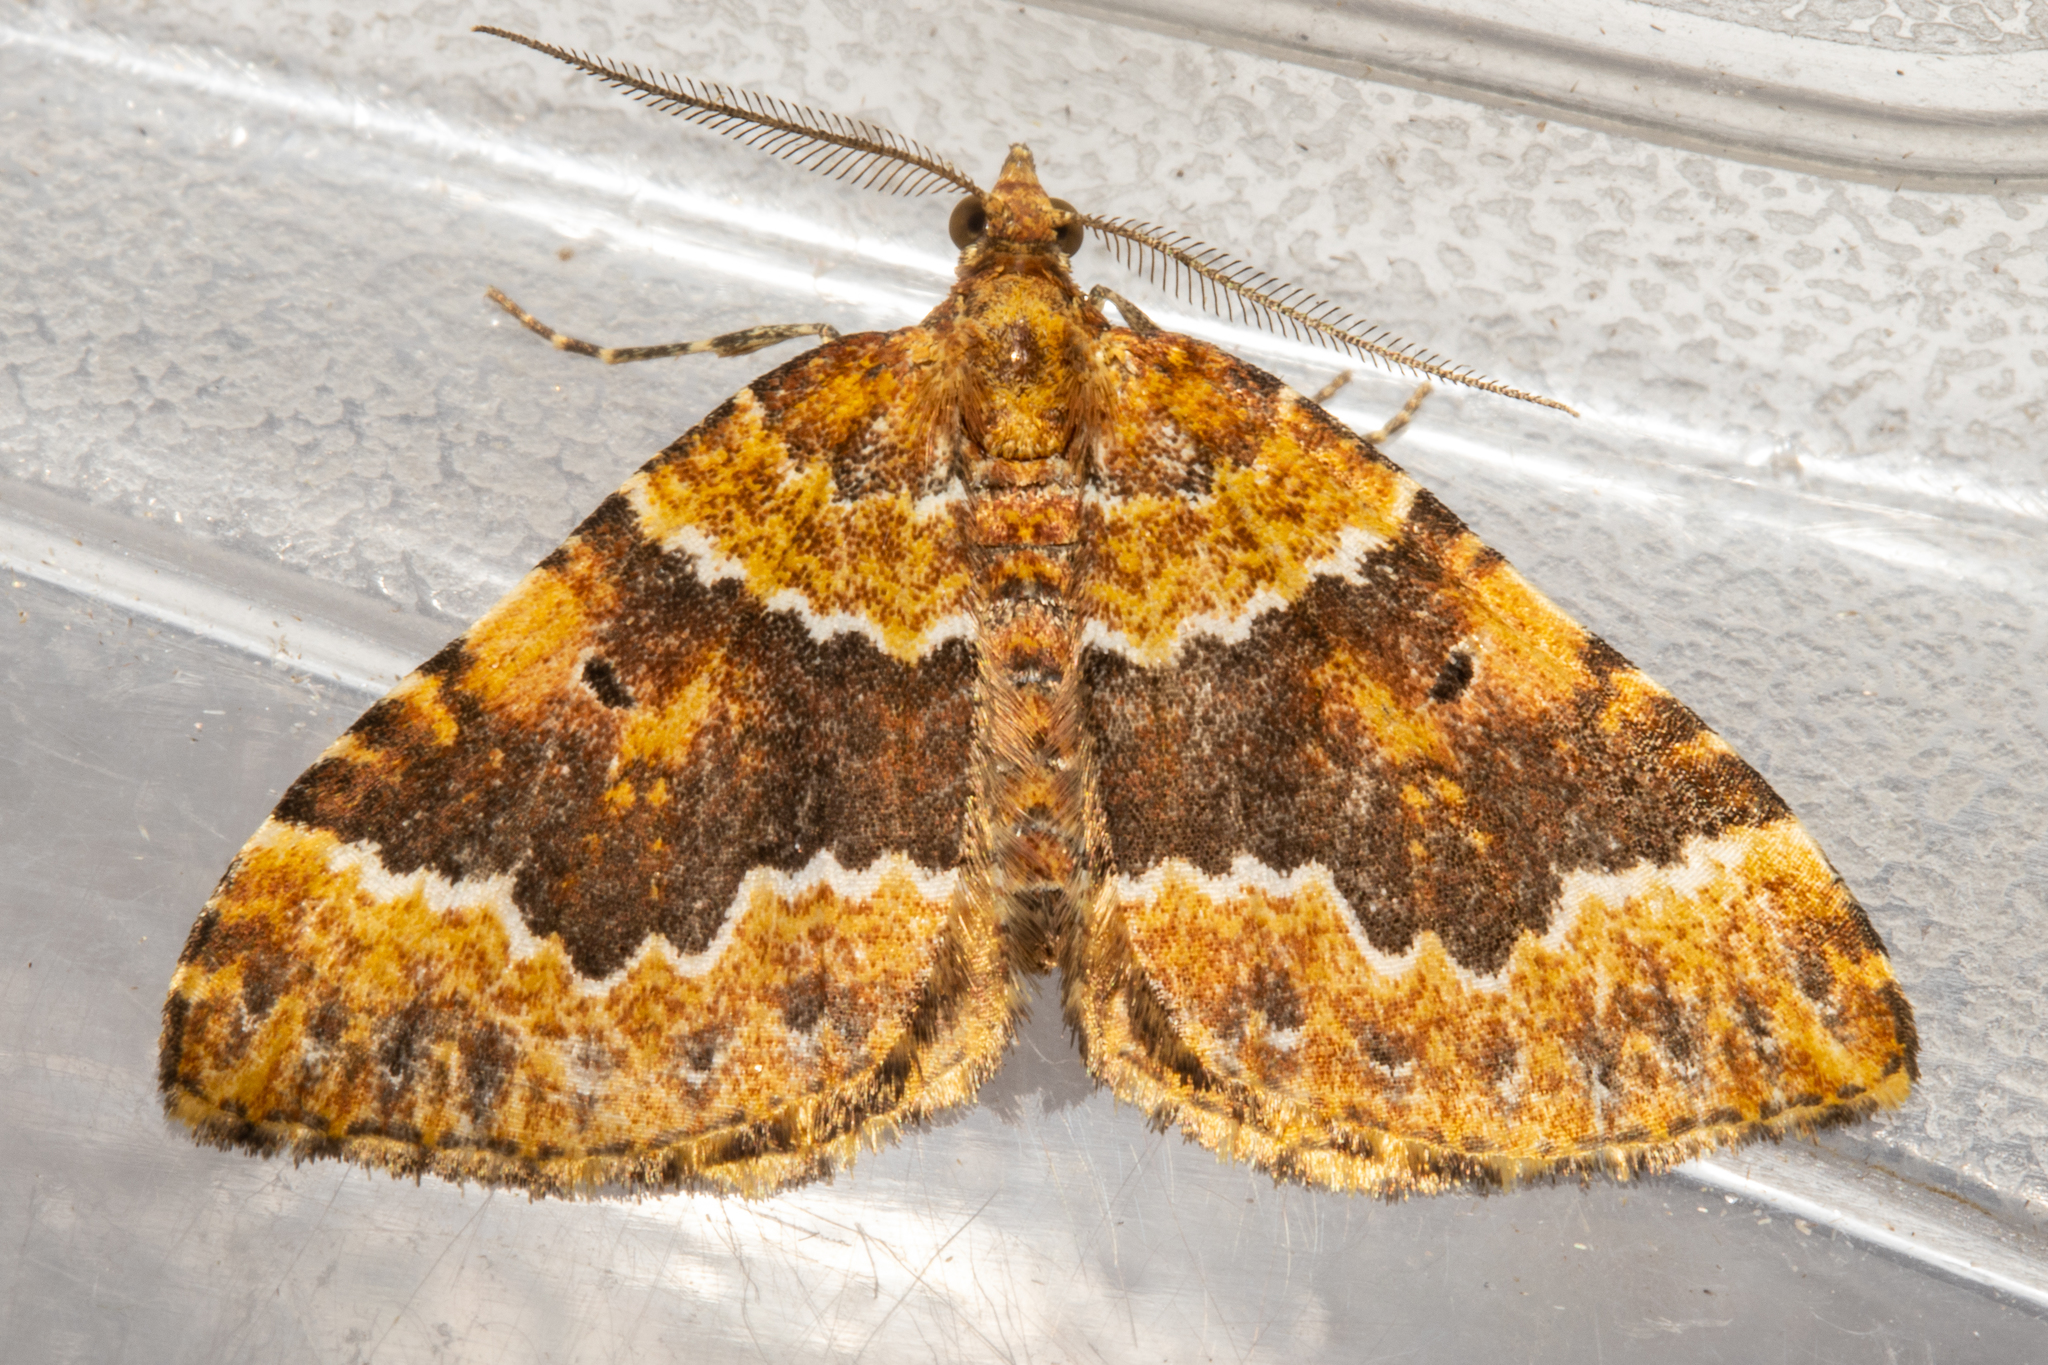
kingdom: Animalia
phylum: Arthropoda
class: Insecta
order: Lepidoptera
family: Geometridae
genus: Asaphodes
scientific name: Asaphodes prasinias
